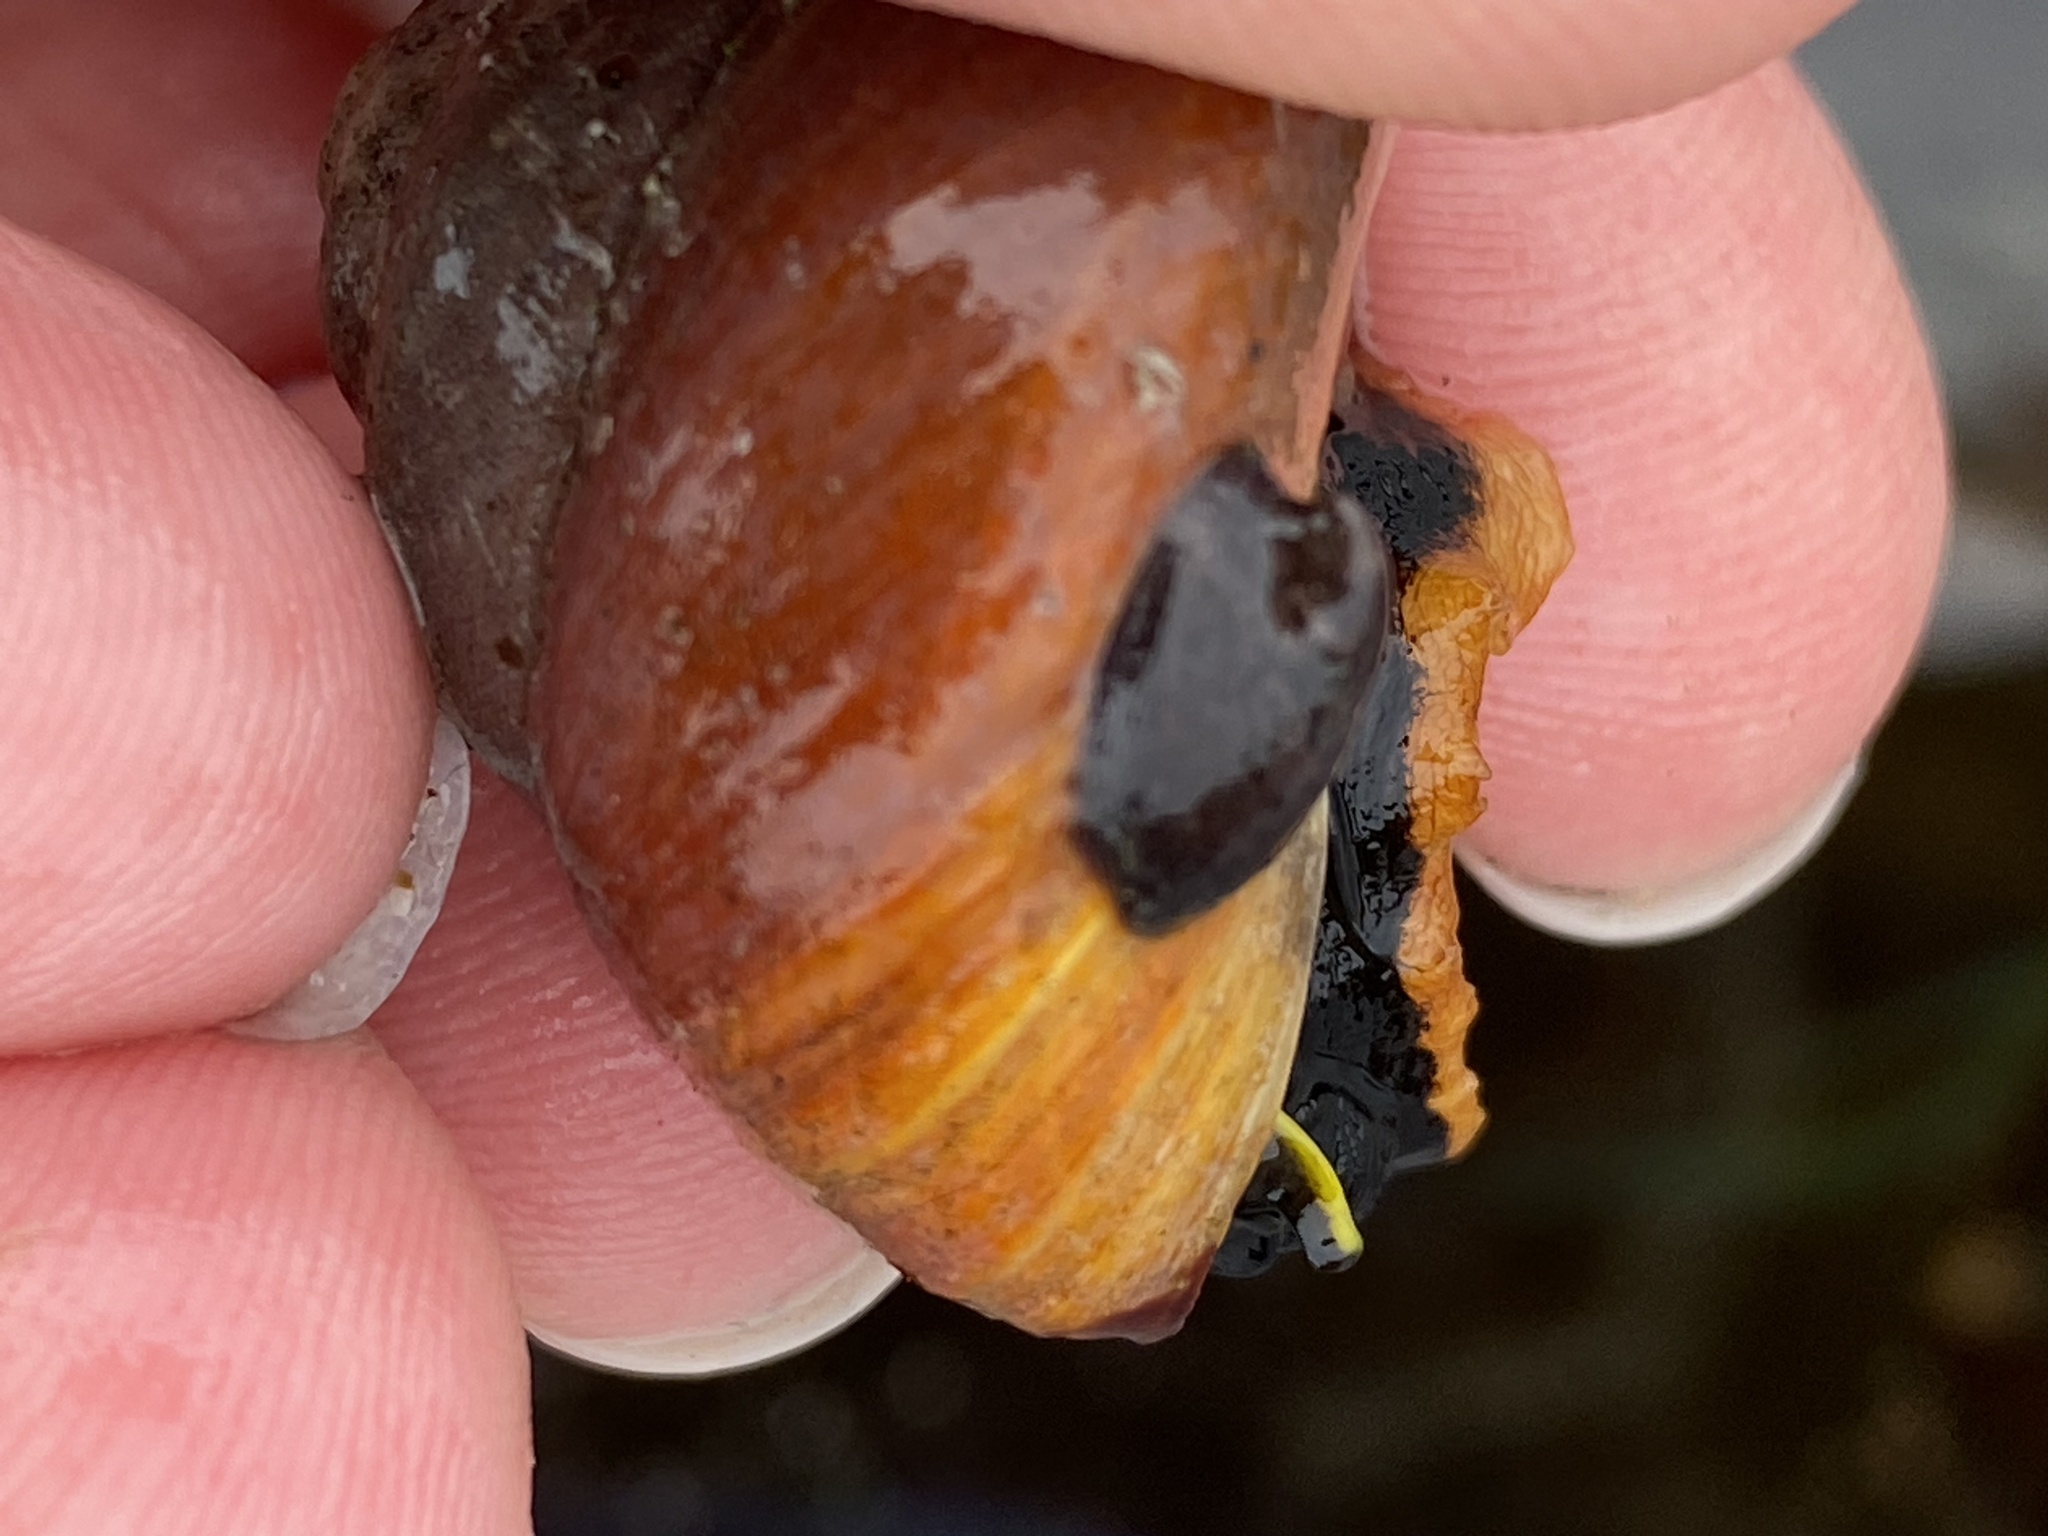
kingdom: Animalia
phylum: Mollusca
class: Gastropoda
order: Littorinimorpha
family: Calyptraeidae
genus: Crepidula
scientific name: Crepidula adunca
